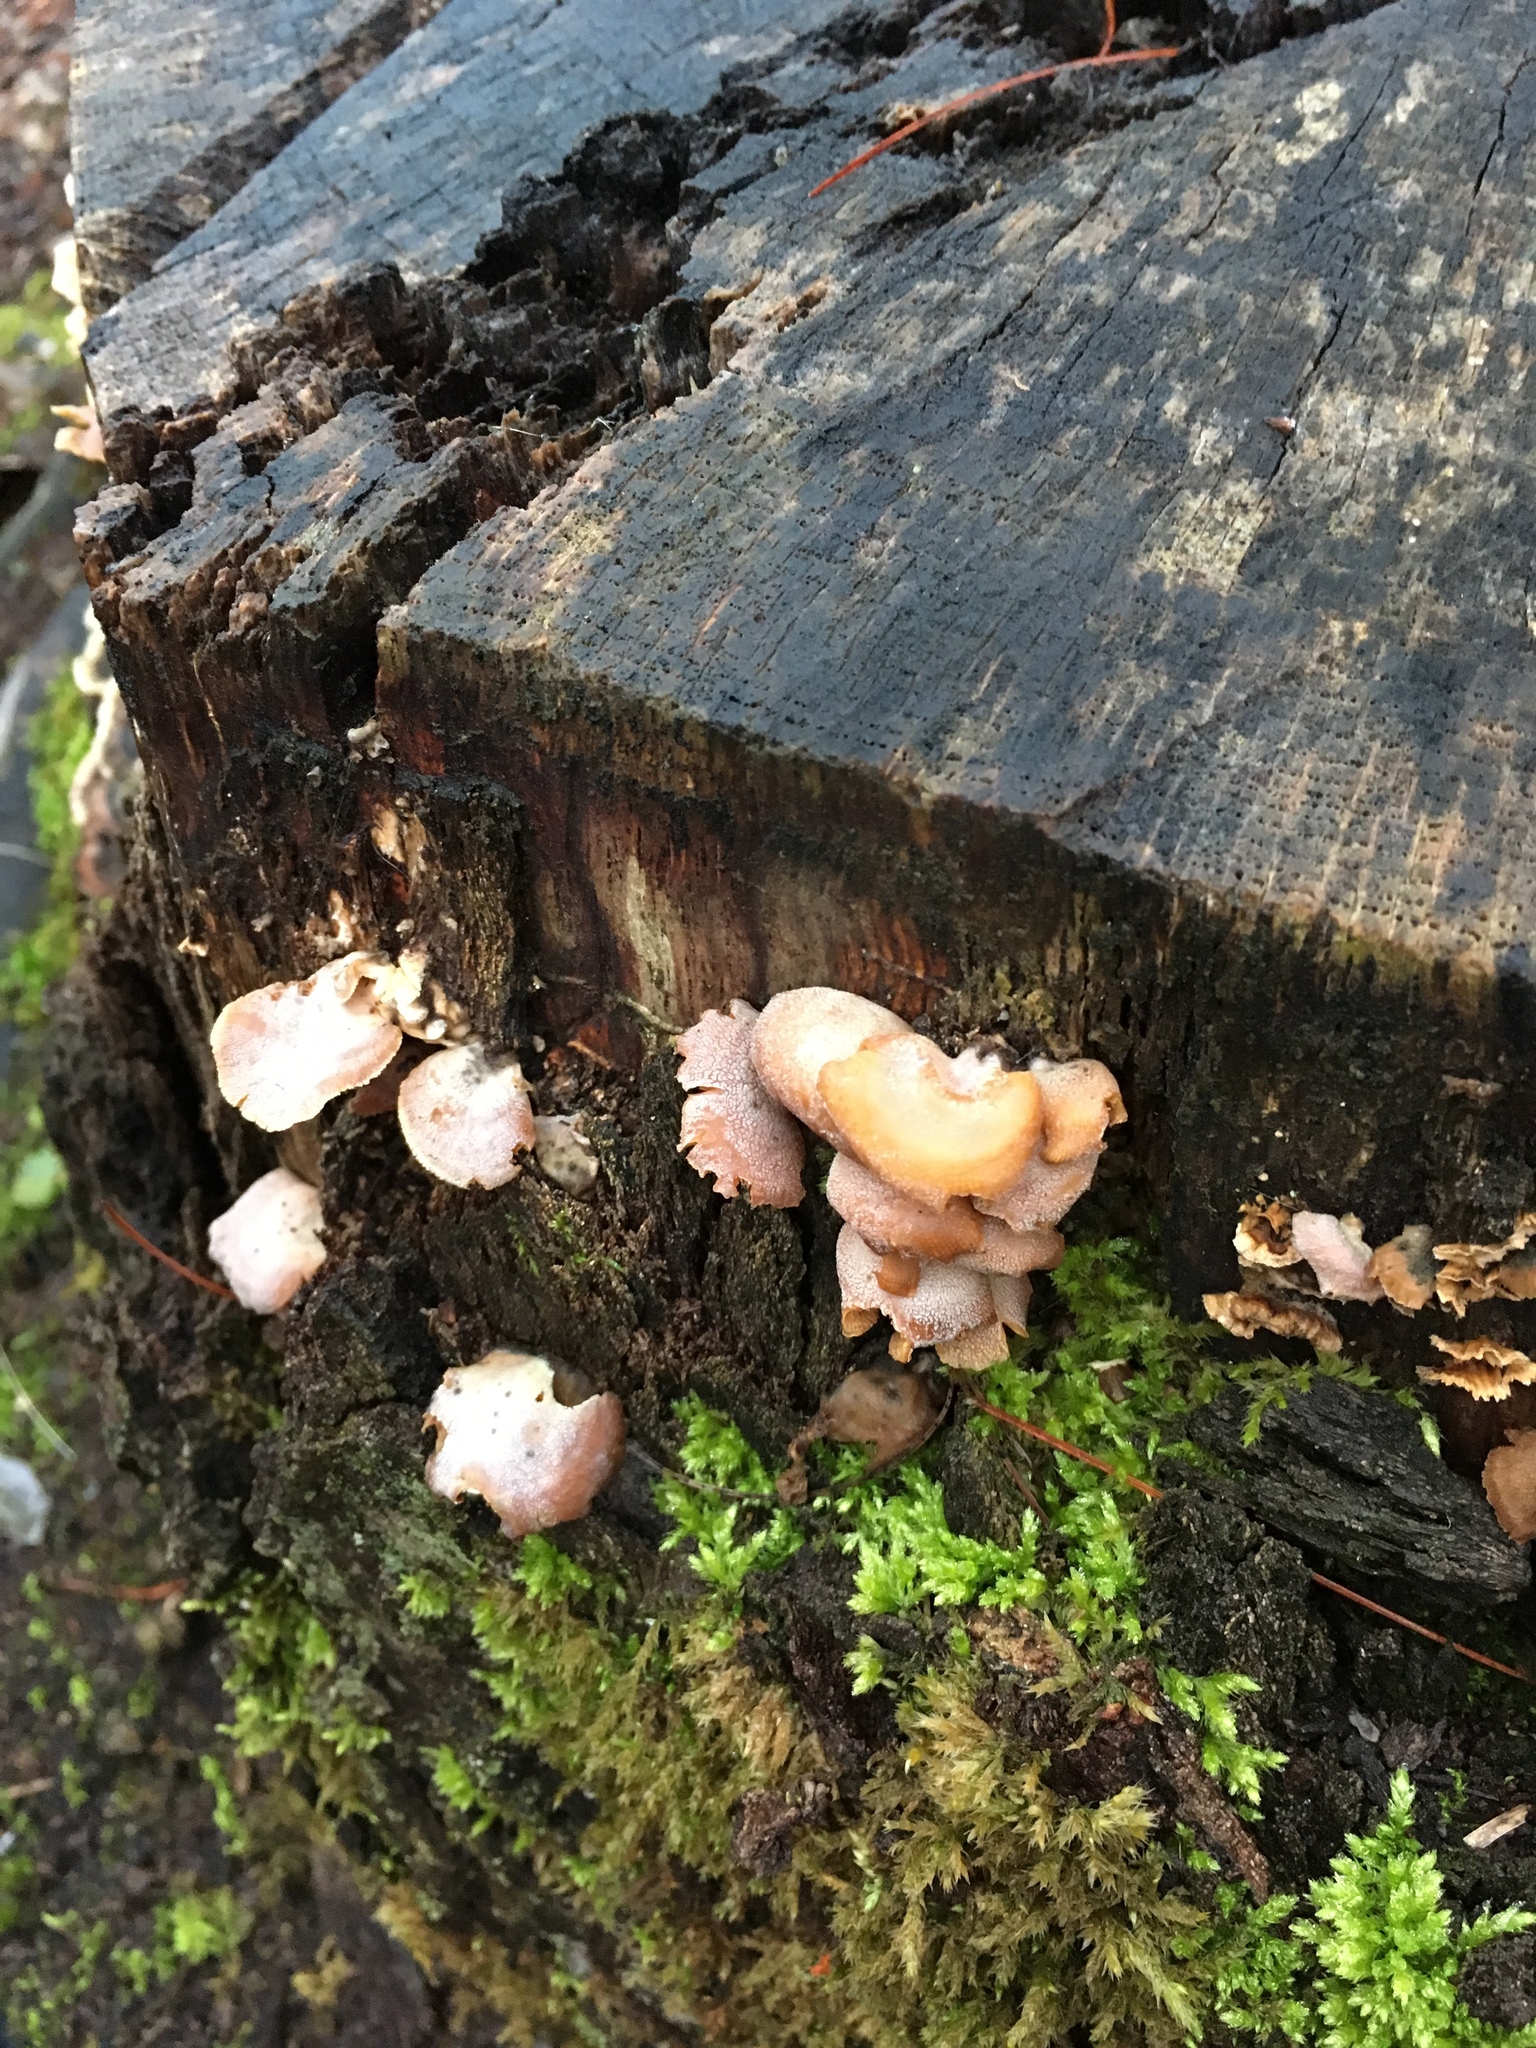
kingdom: Fungi
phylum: Basidiomycota
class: Agaricomycetes
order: Agaricales
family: Mycenaceae
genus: Panellus
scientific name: Panellus stipticus
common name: Bitter oysterling
